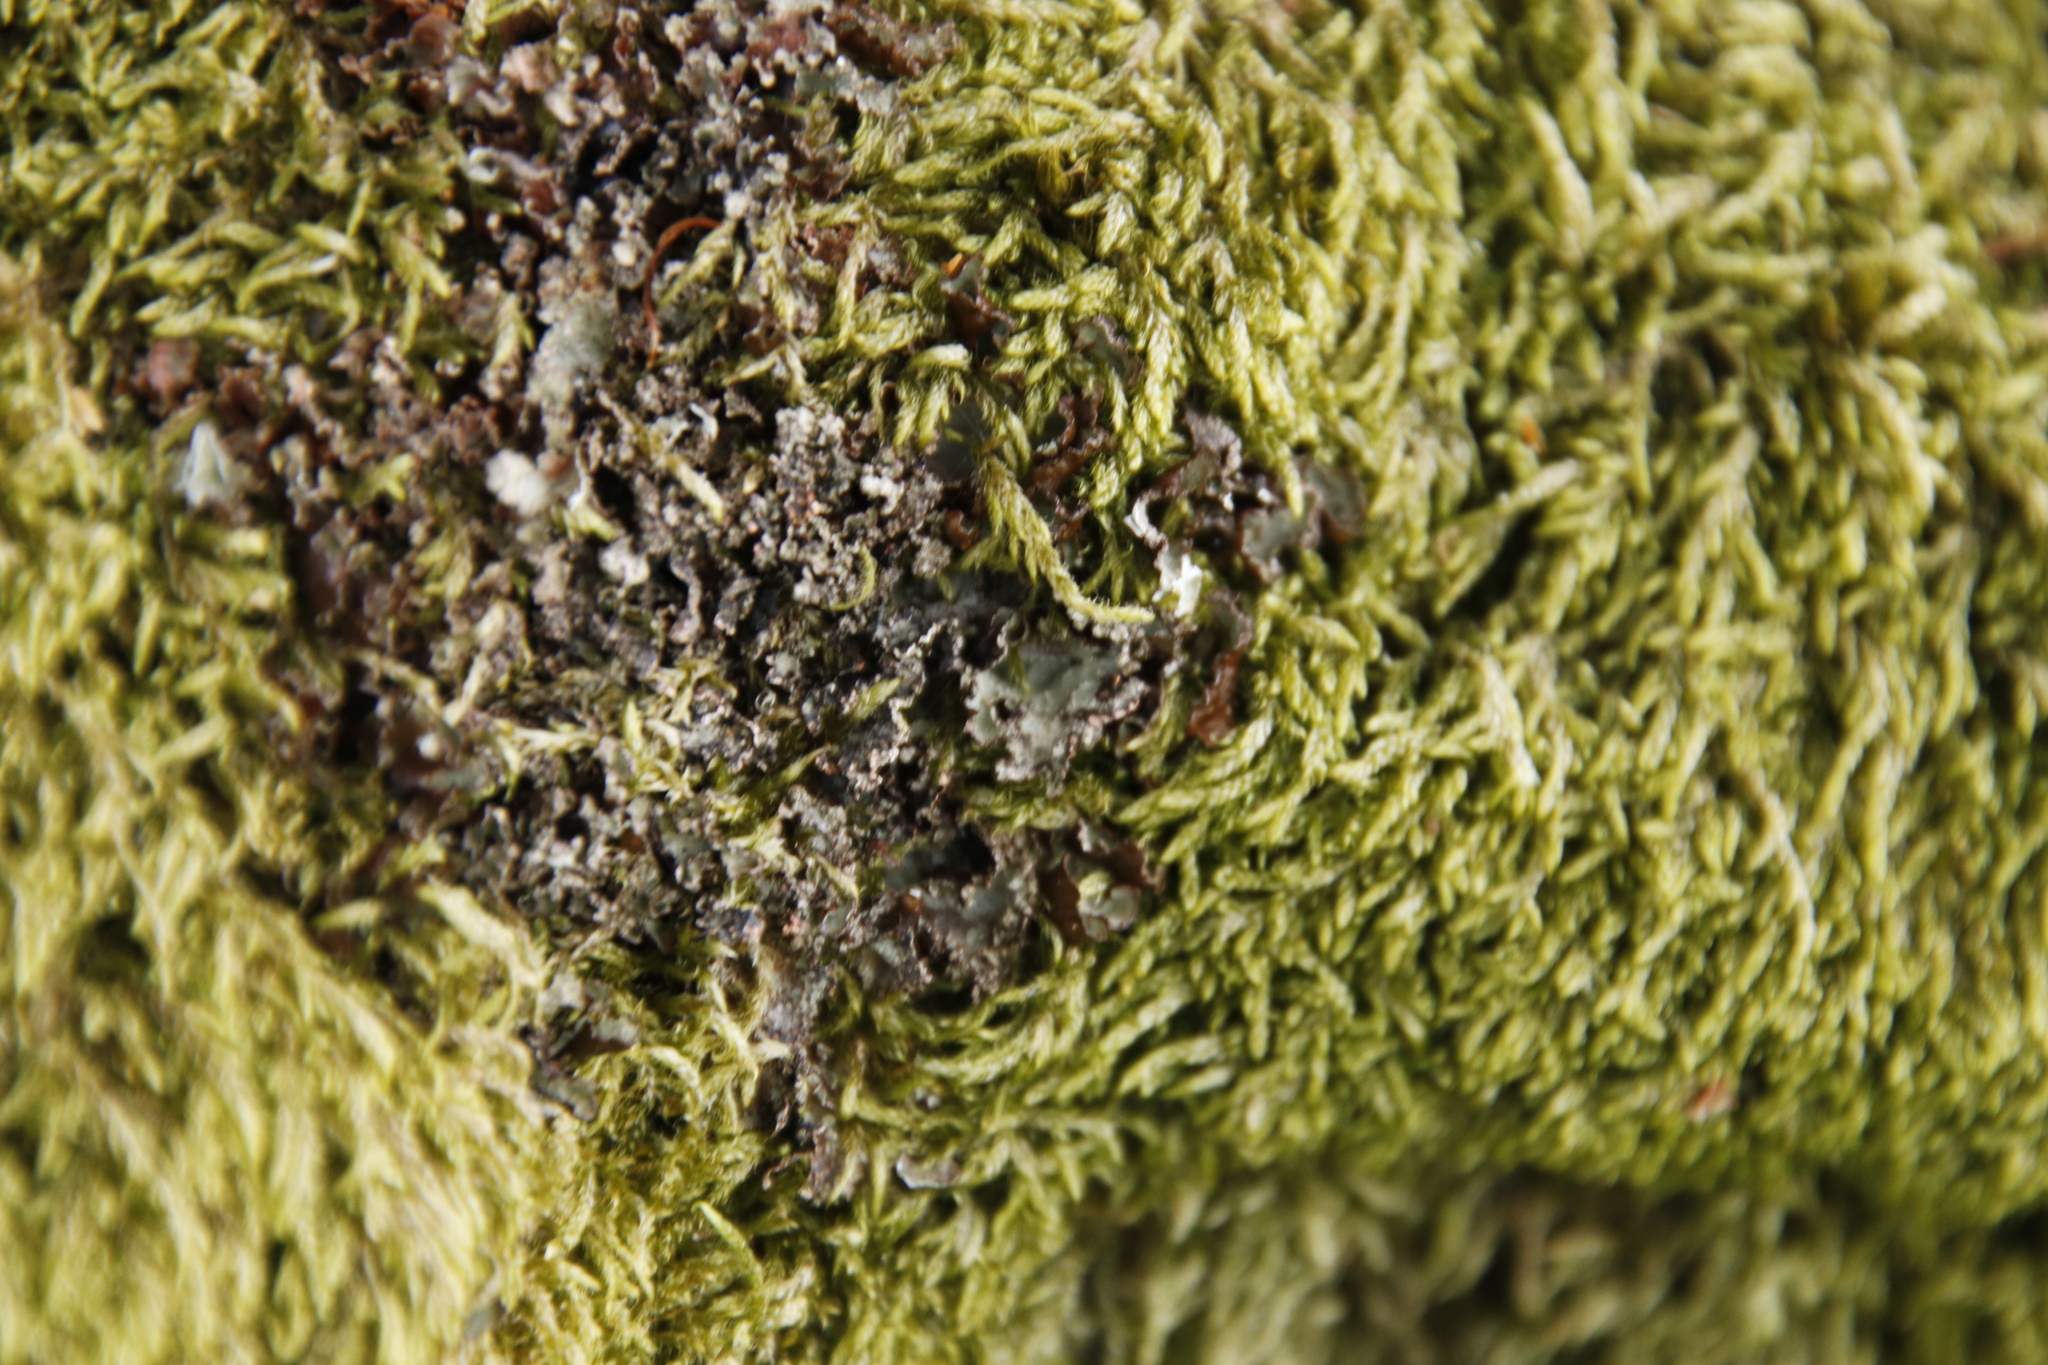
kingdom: Plantae
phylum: Bryophyta
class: Bryopsida
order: Hypnales
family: Hypnaceae
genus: Hypnum
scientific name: Hypnum cupressiforme
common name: Cypress-leaved plait-moss
